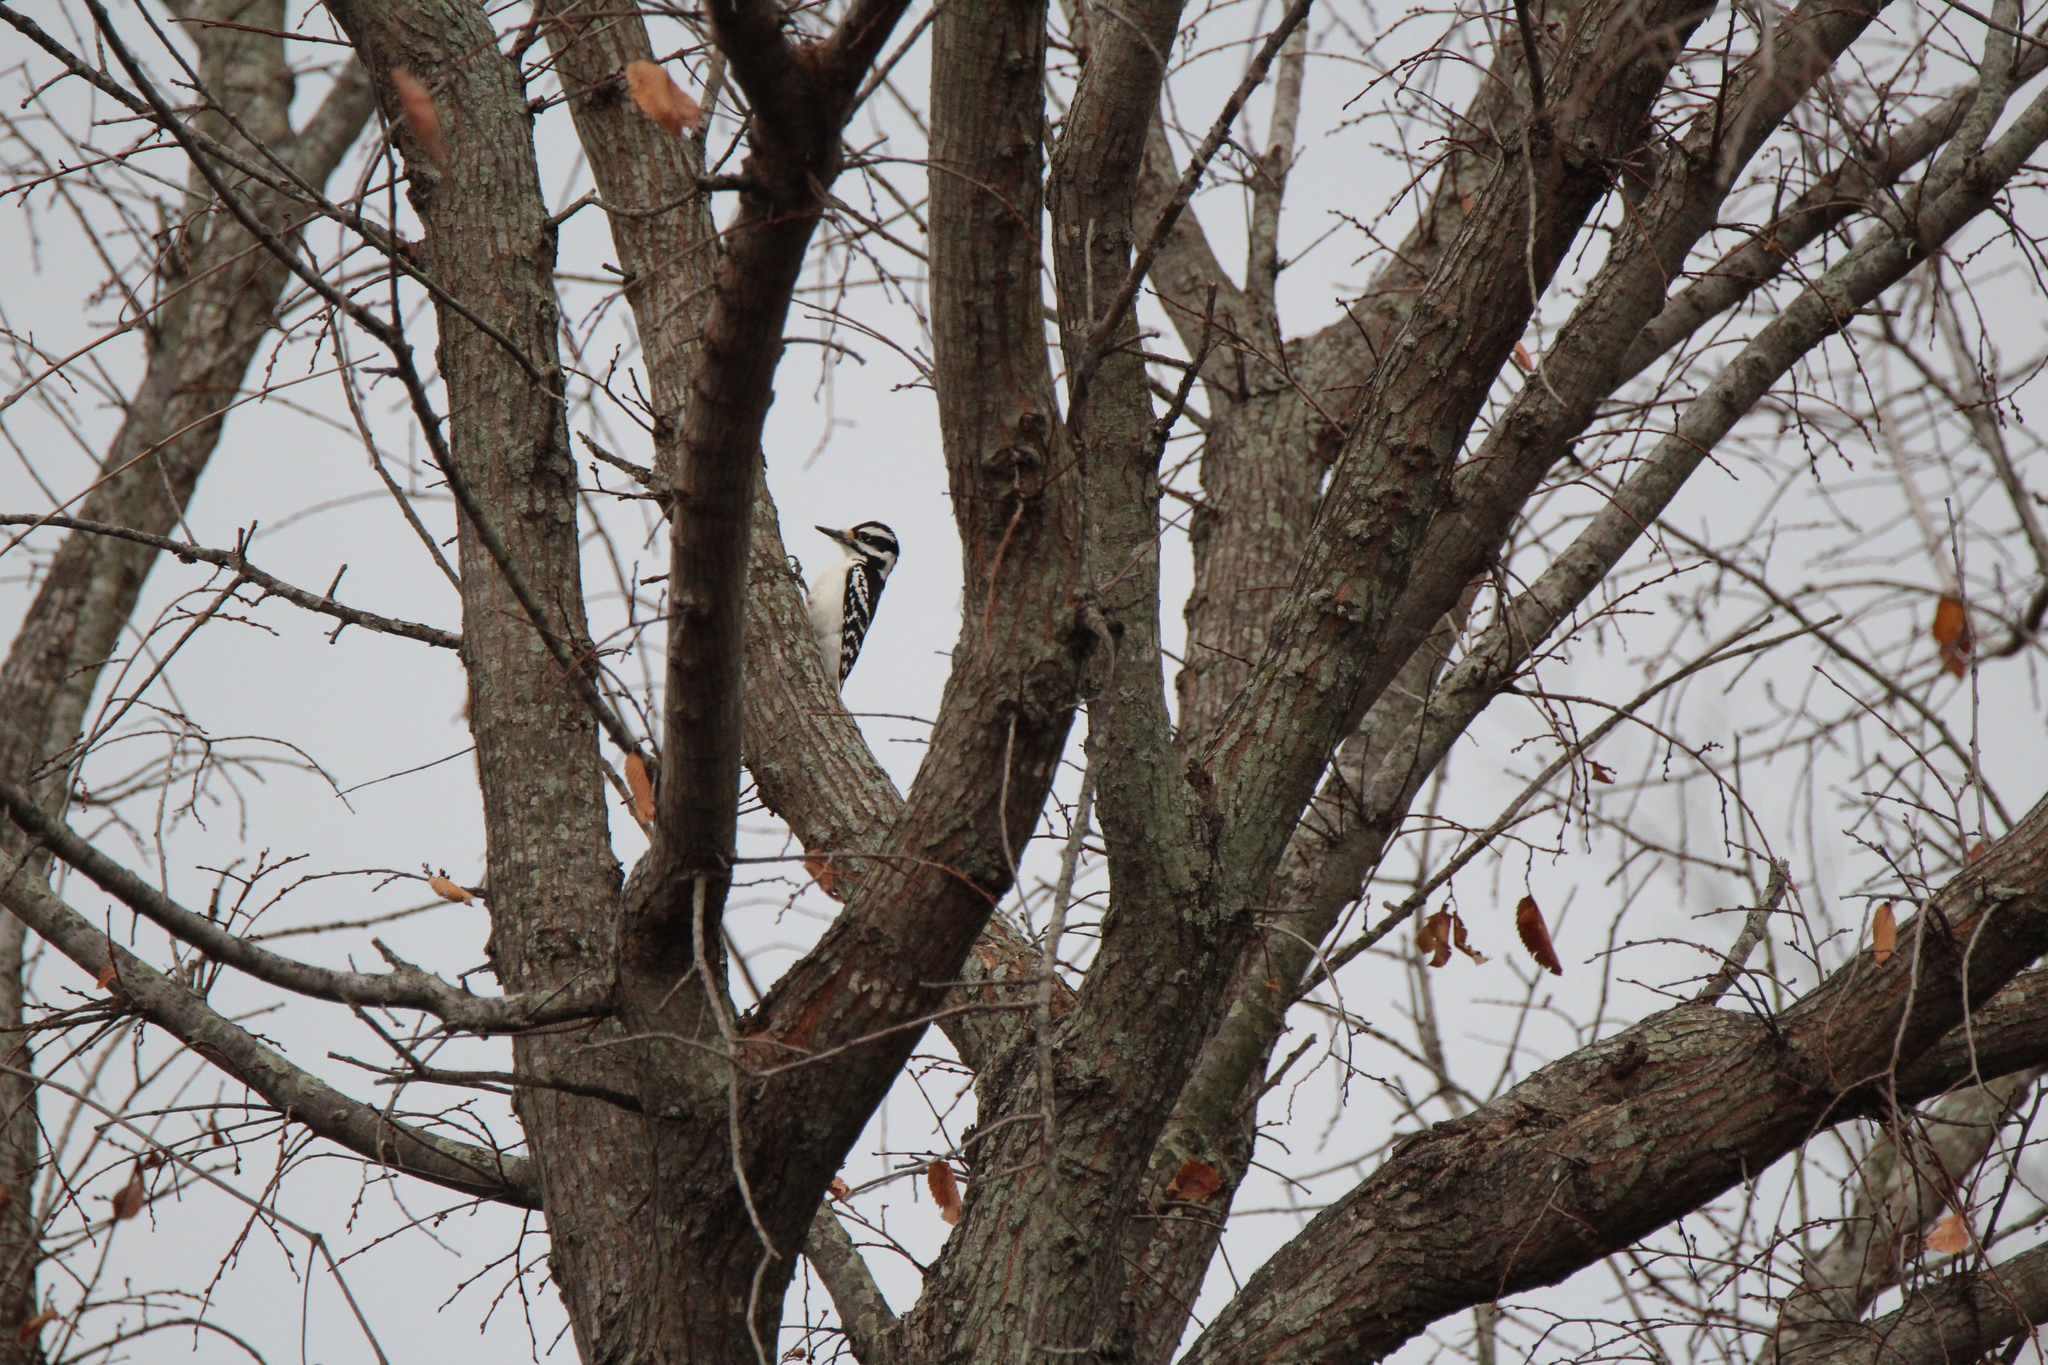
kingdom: Animalia
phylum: Chordata
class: Aves
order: Piciformes
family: Picidae
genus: Leuconotopicus
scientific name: Leuconotopicus villosus
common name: Hairy woodpecker
